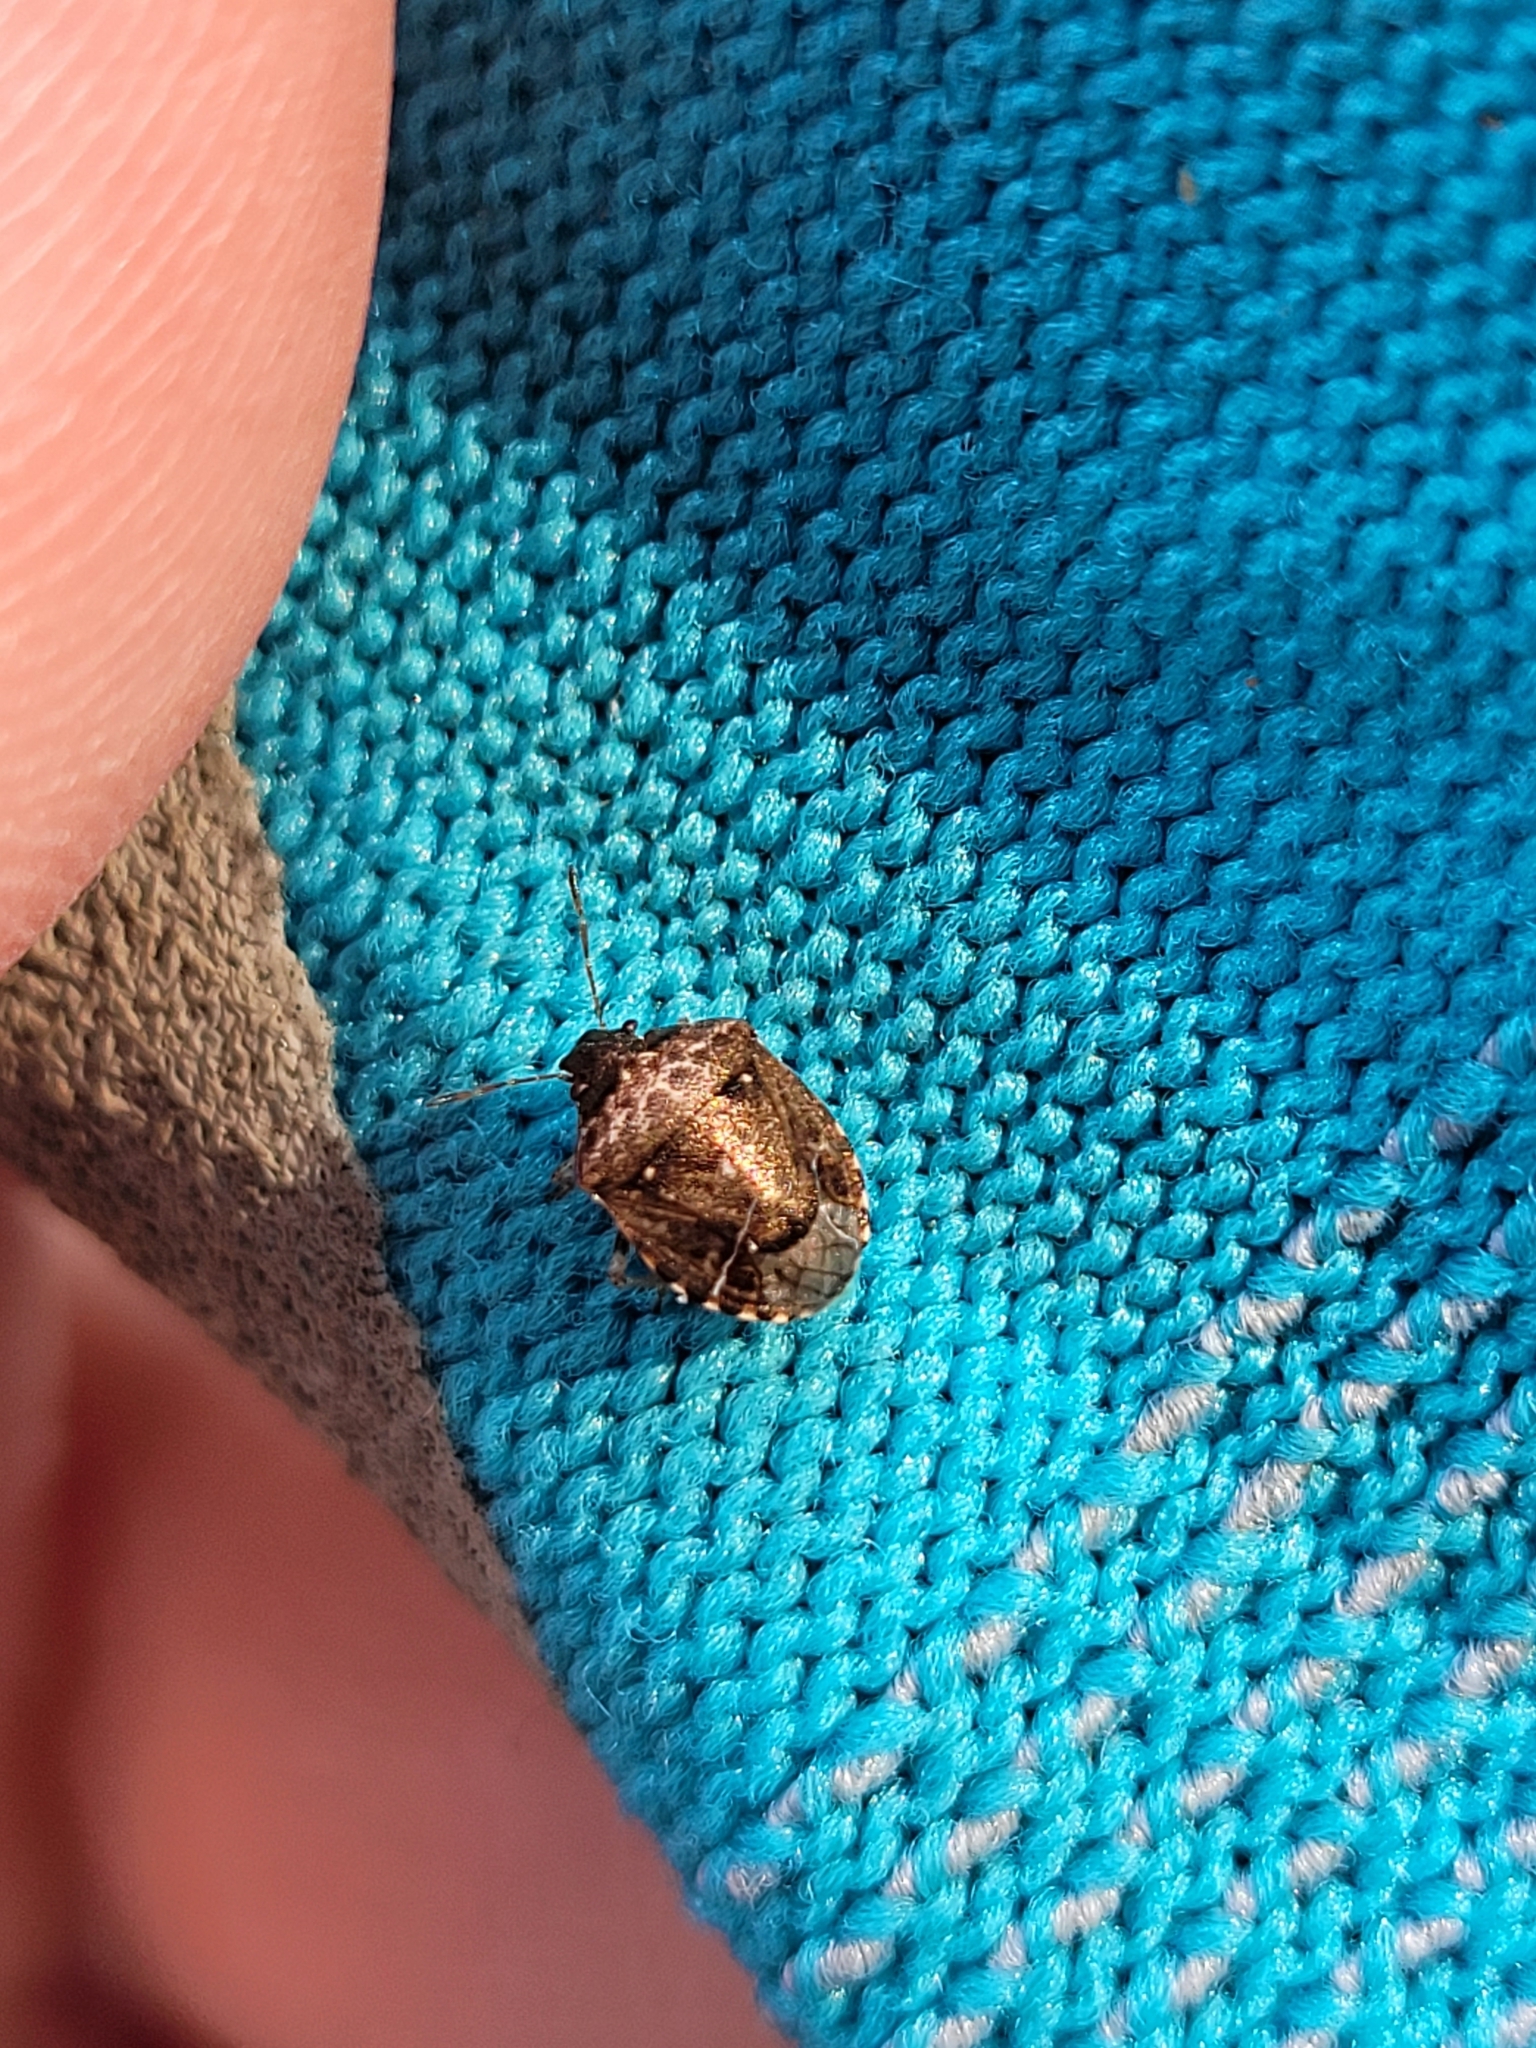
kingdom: Animalia
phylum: Arthropoda
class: Insecta
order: Hemiptera
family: Pentatomidae
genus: Cosmopepla
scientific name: Cosmopepla intergressus
